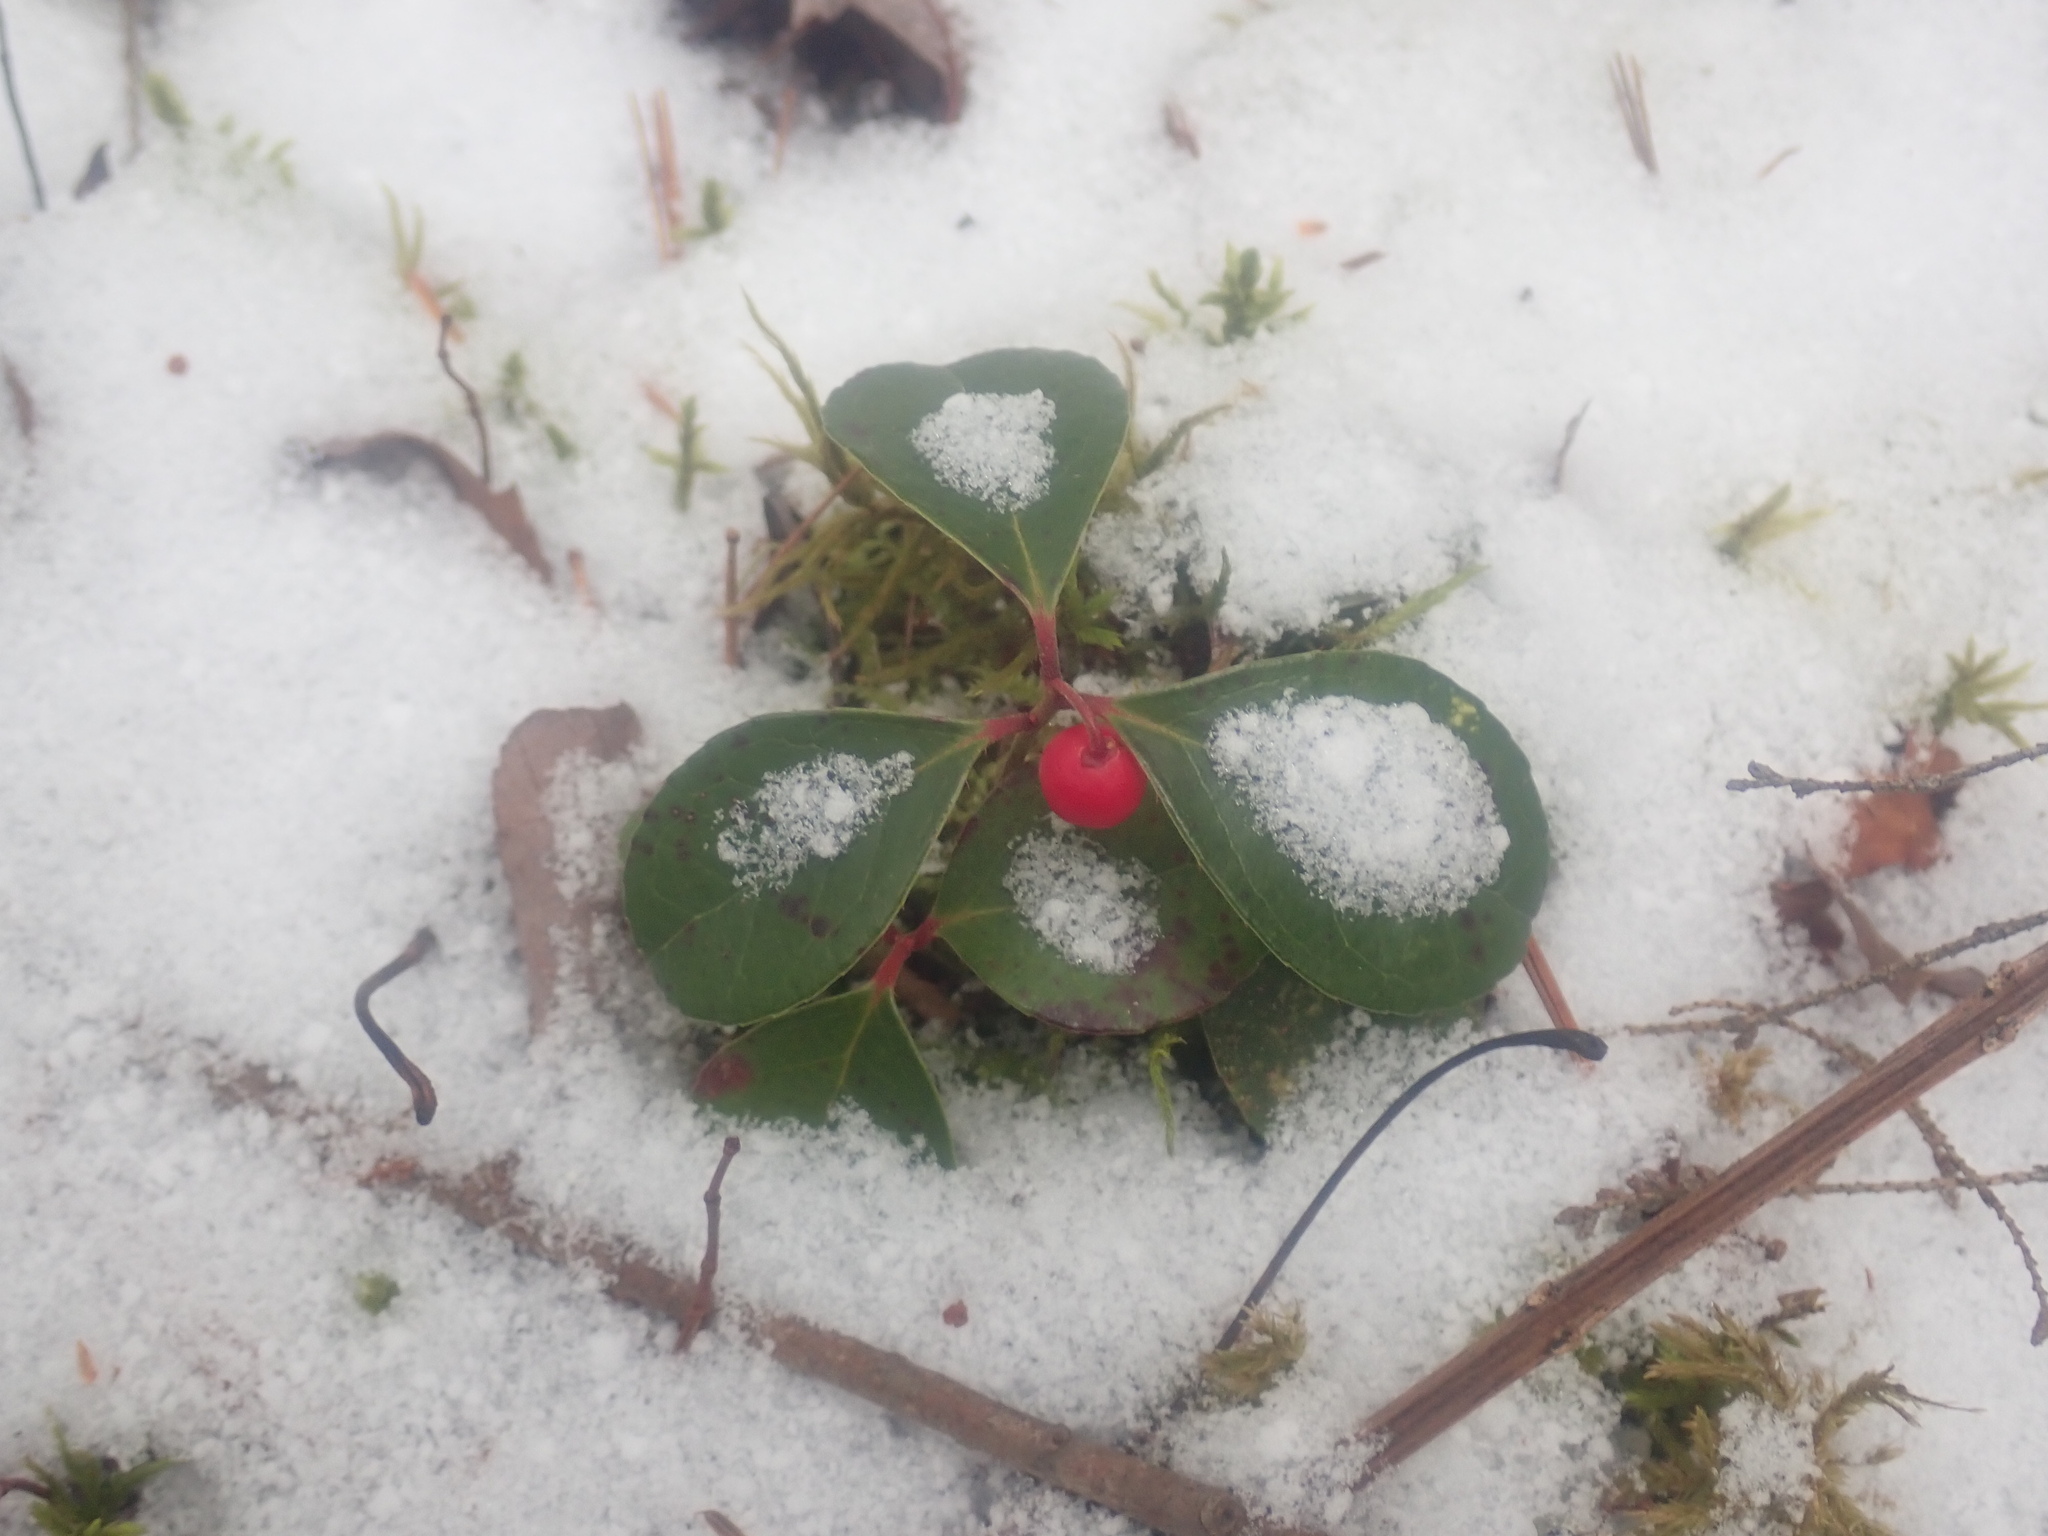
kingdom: Plantae
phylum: Tracheophyta
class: Magnoliopsida
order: Ericales
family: Ericaceae
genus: Gaultheria
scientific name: Gaultheria procumbens
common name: Checkerberry
